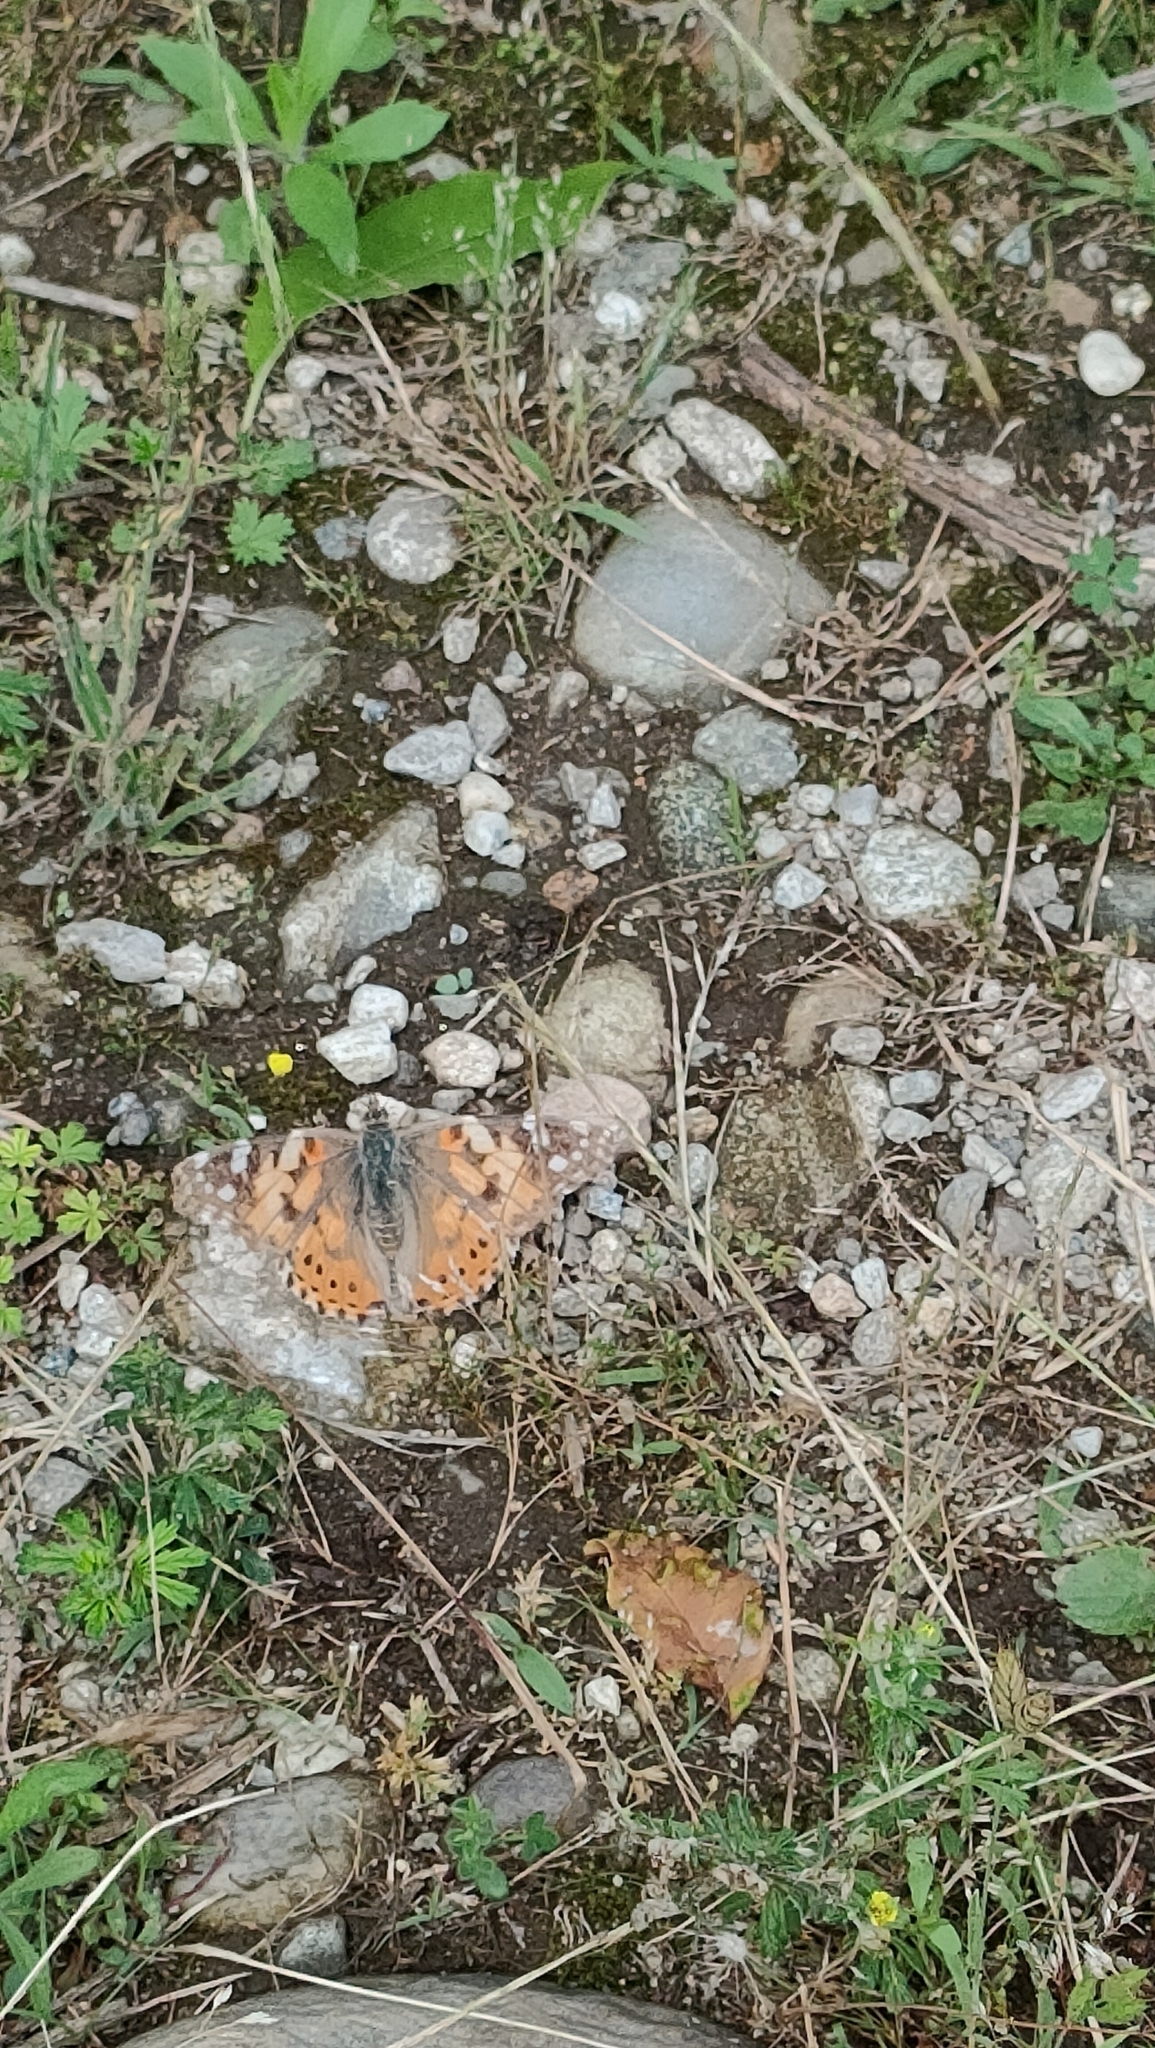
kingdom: Animalia
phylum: Arthropoda
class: Insecta
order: Lepidoptera
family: Nymphalidae
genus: Vanessa
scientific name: Vanessa cardui
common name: Painted lady
